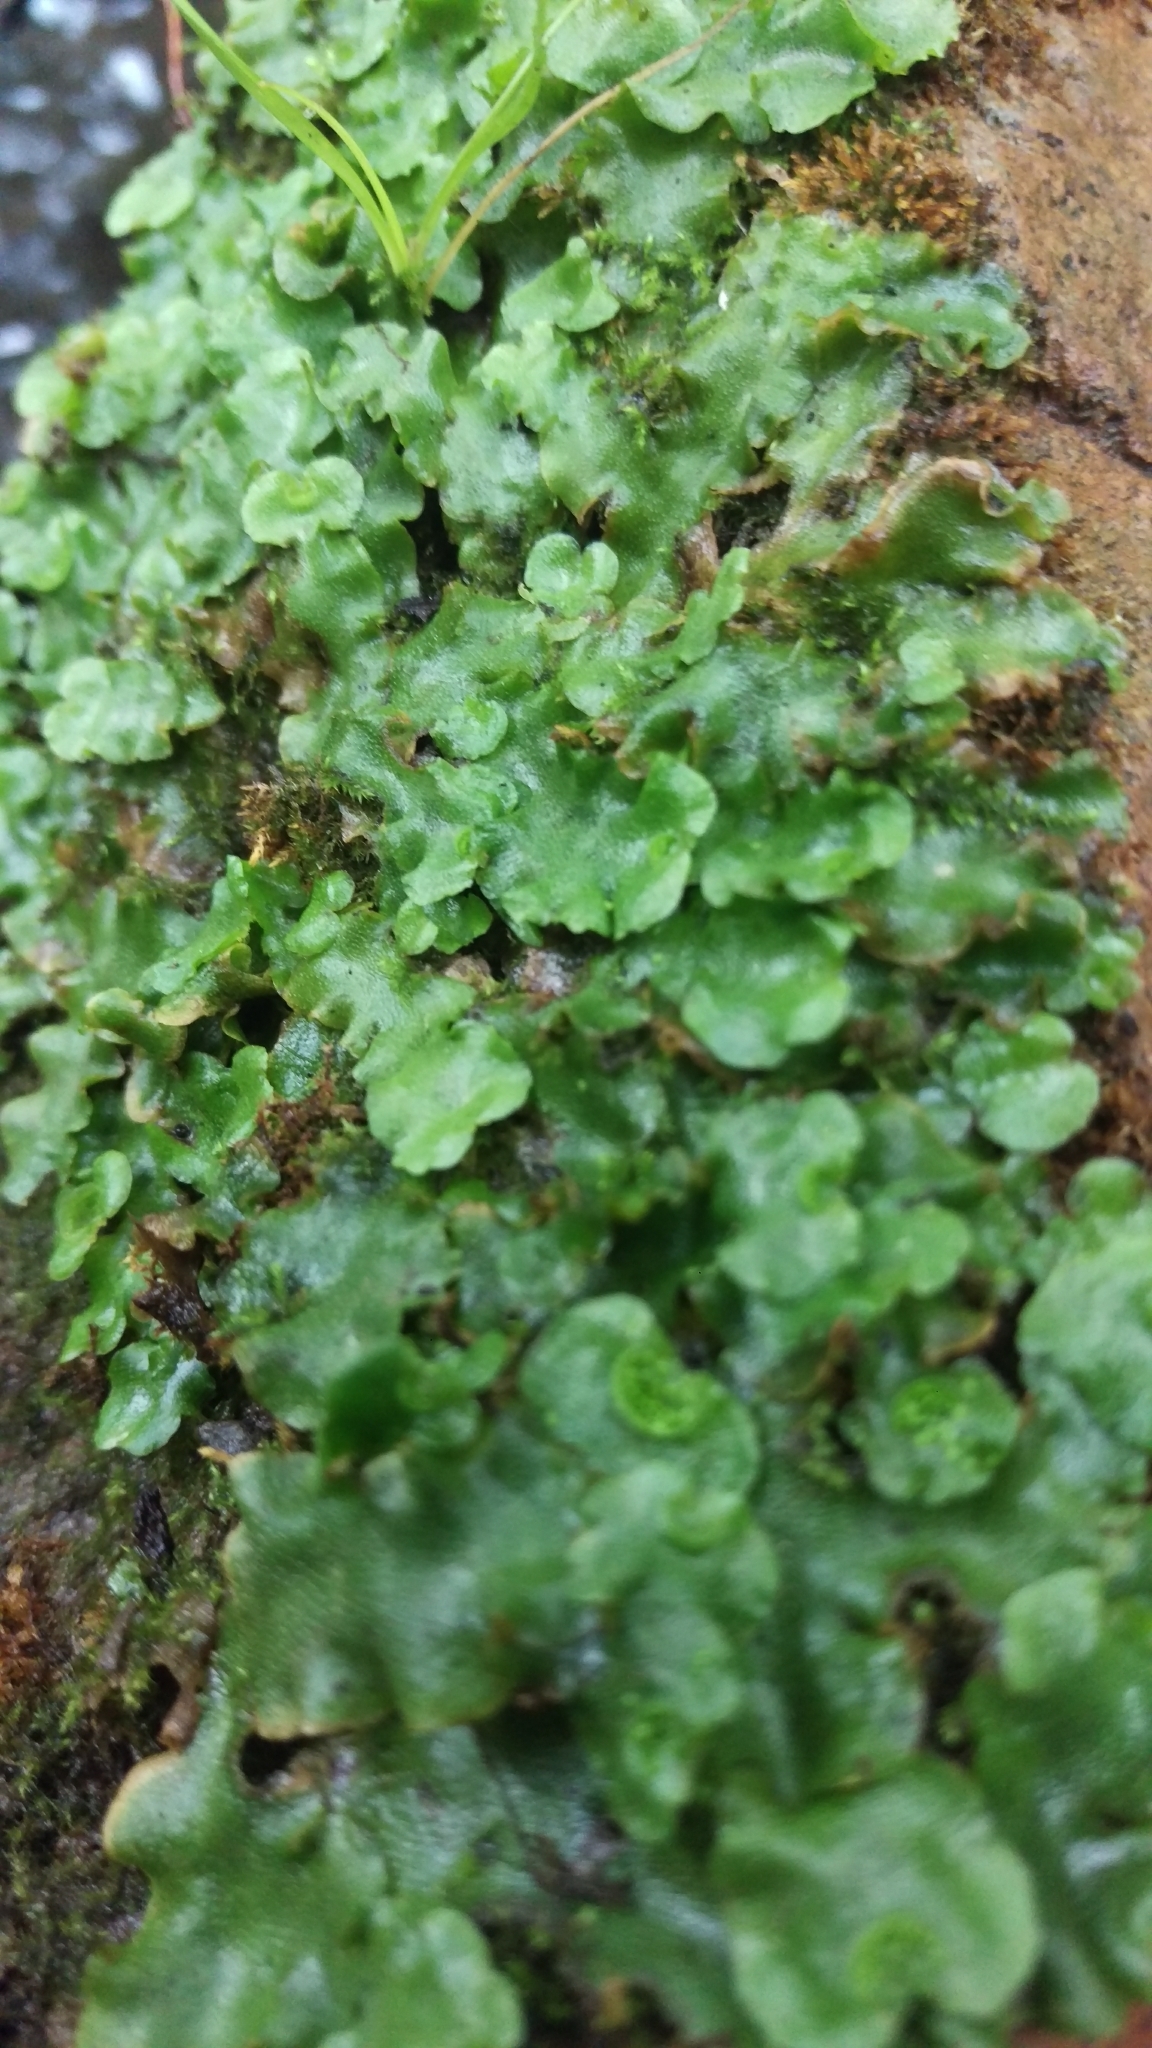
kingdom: Plantae
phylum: Marchantiophyta
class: Marchantiopsida
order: Lunulariales
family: Lunulariaceae
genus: Lunularia
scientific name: Lunularia cruciata
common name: Crescent-cup liverwort
